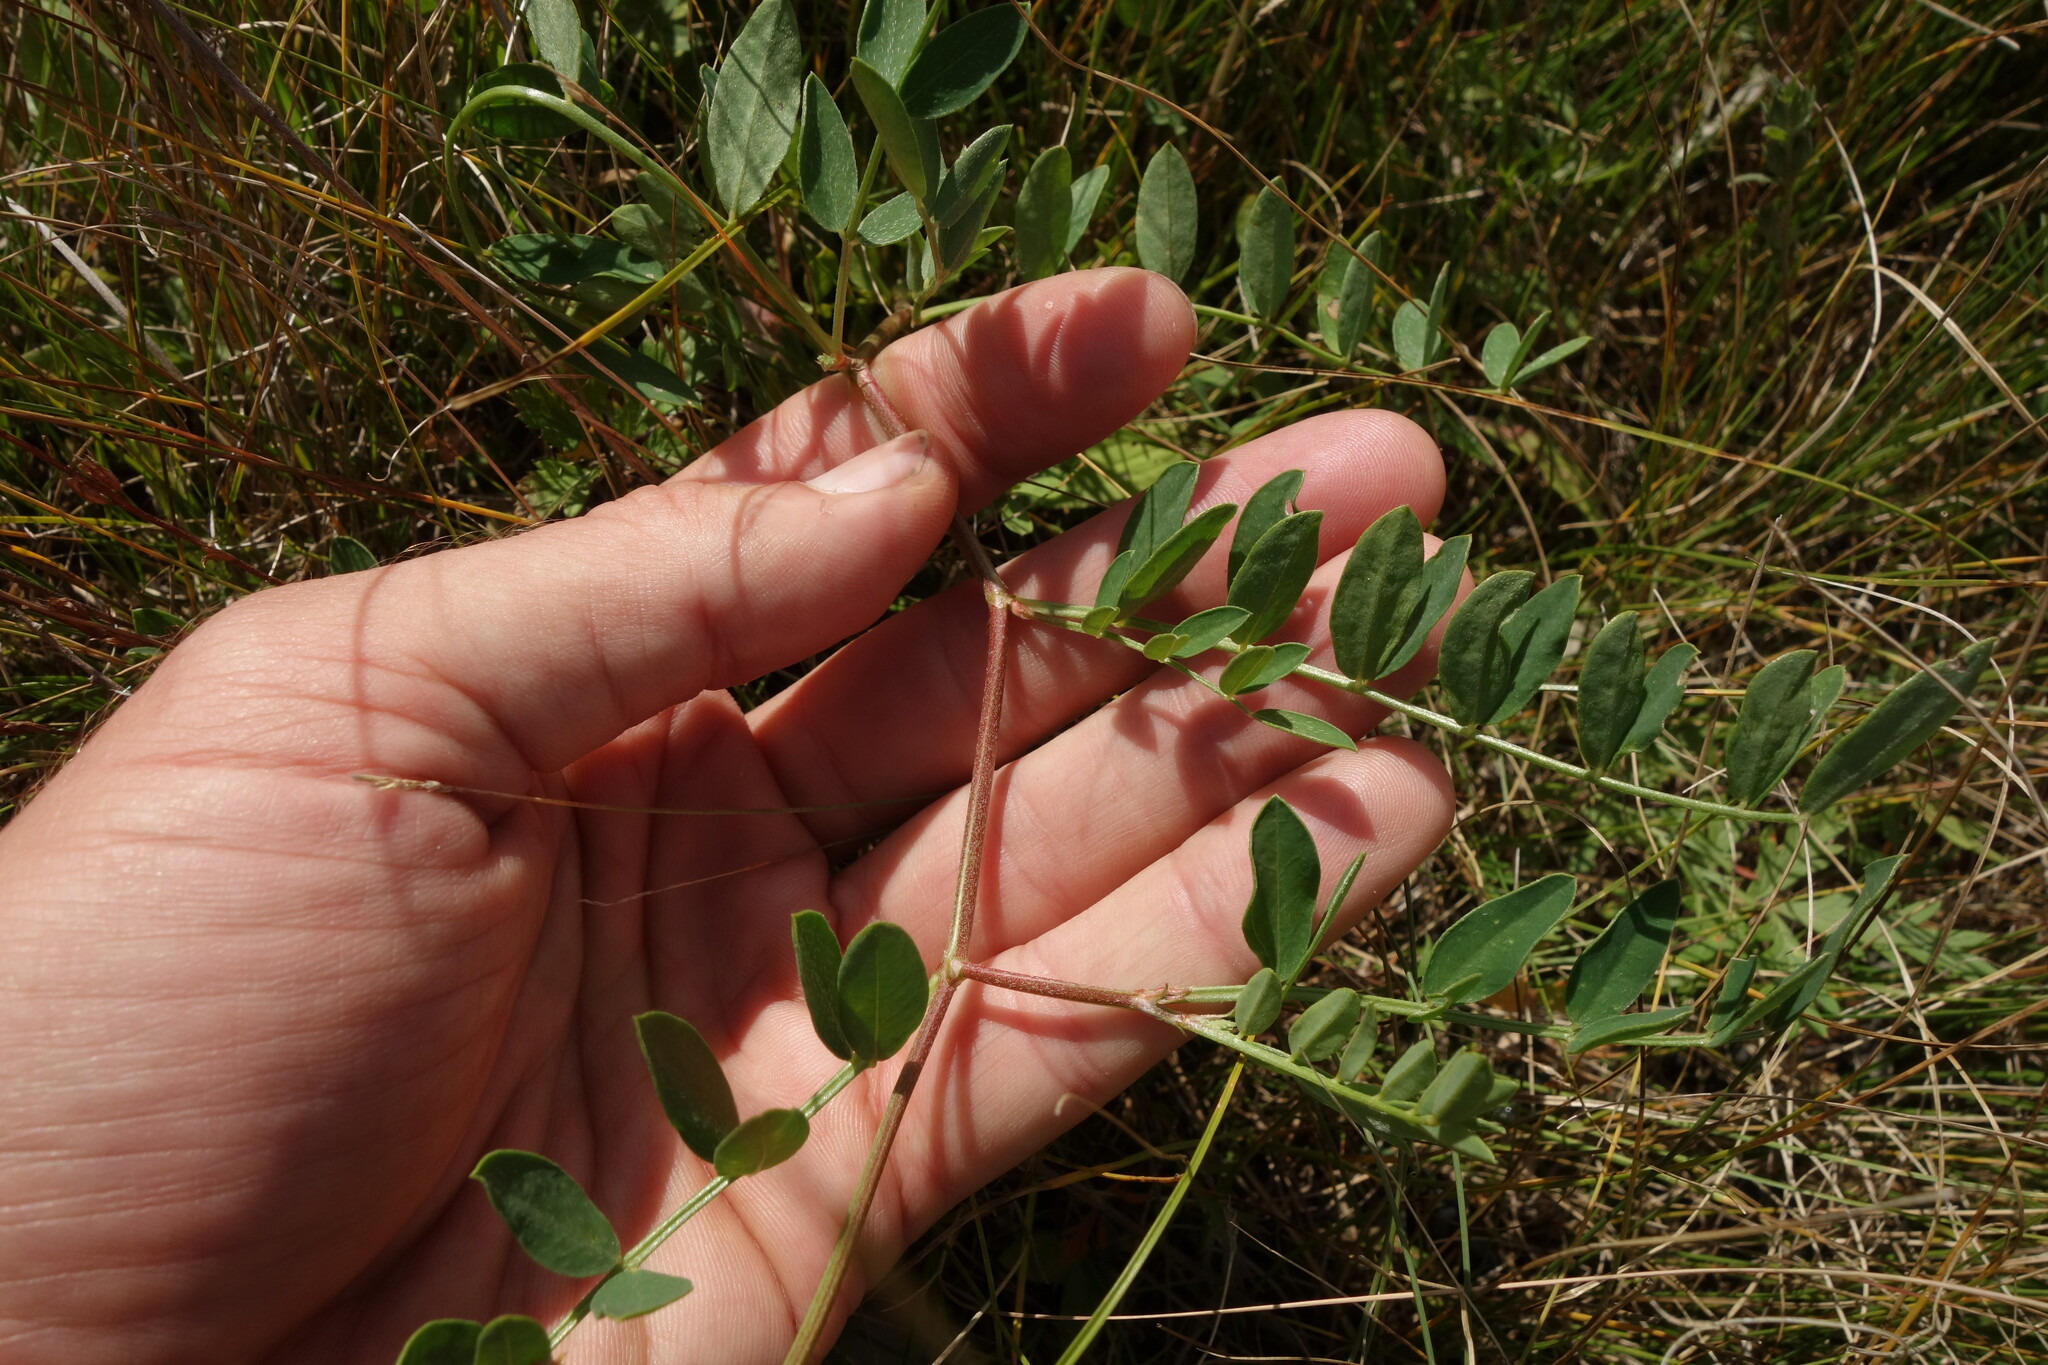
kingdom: Plantae
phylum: Tracheophyta
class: Magnoliopsida
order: Fabales
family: Fabaceae
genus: Astragalus
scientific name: Astragalus laxmannii
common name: Laxmann's milk-vetch
